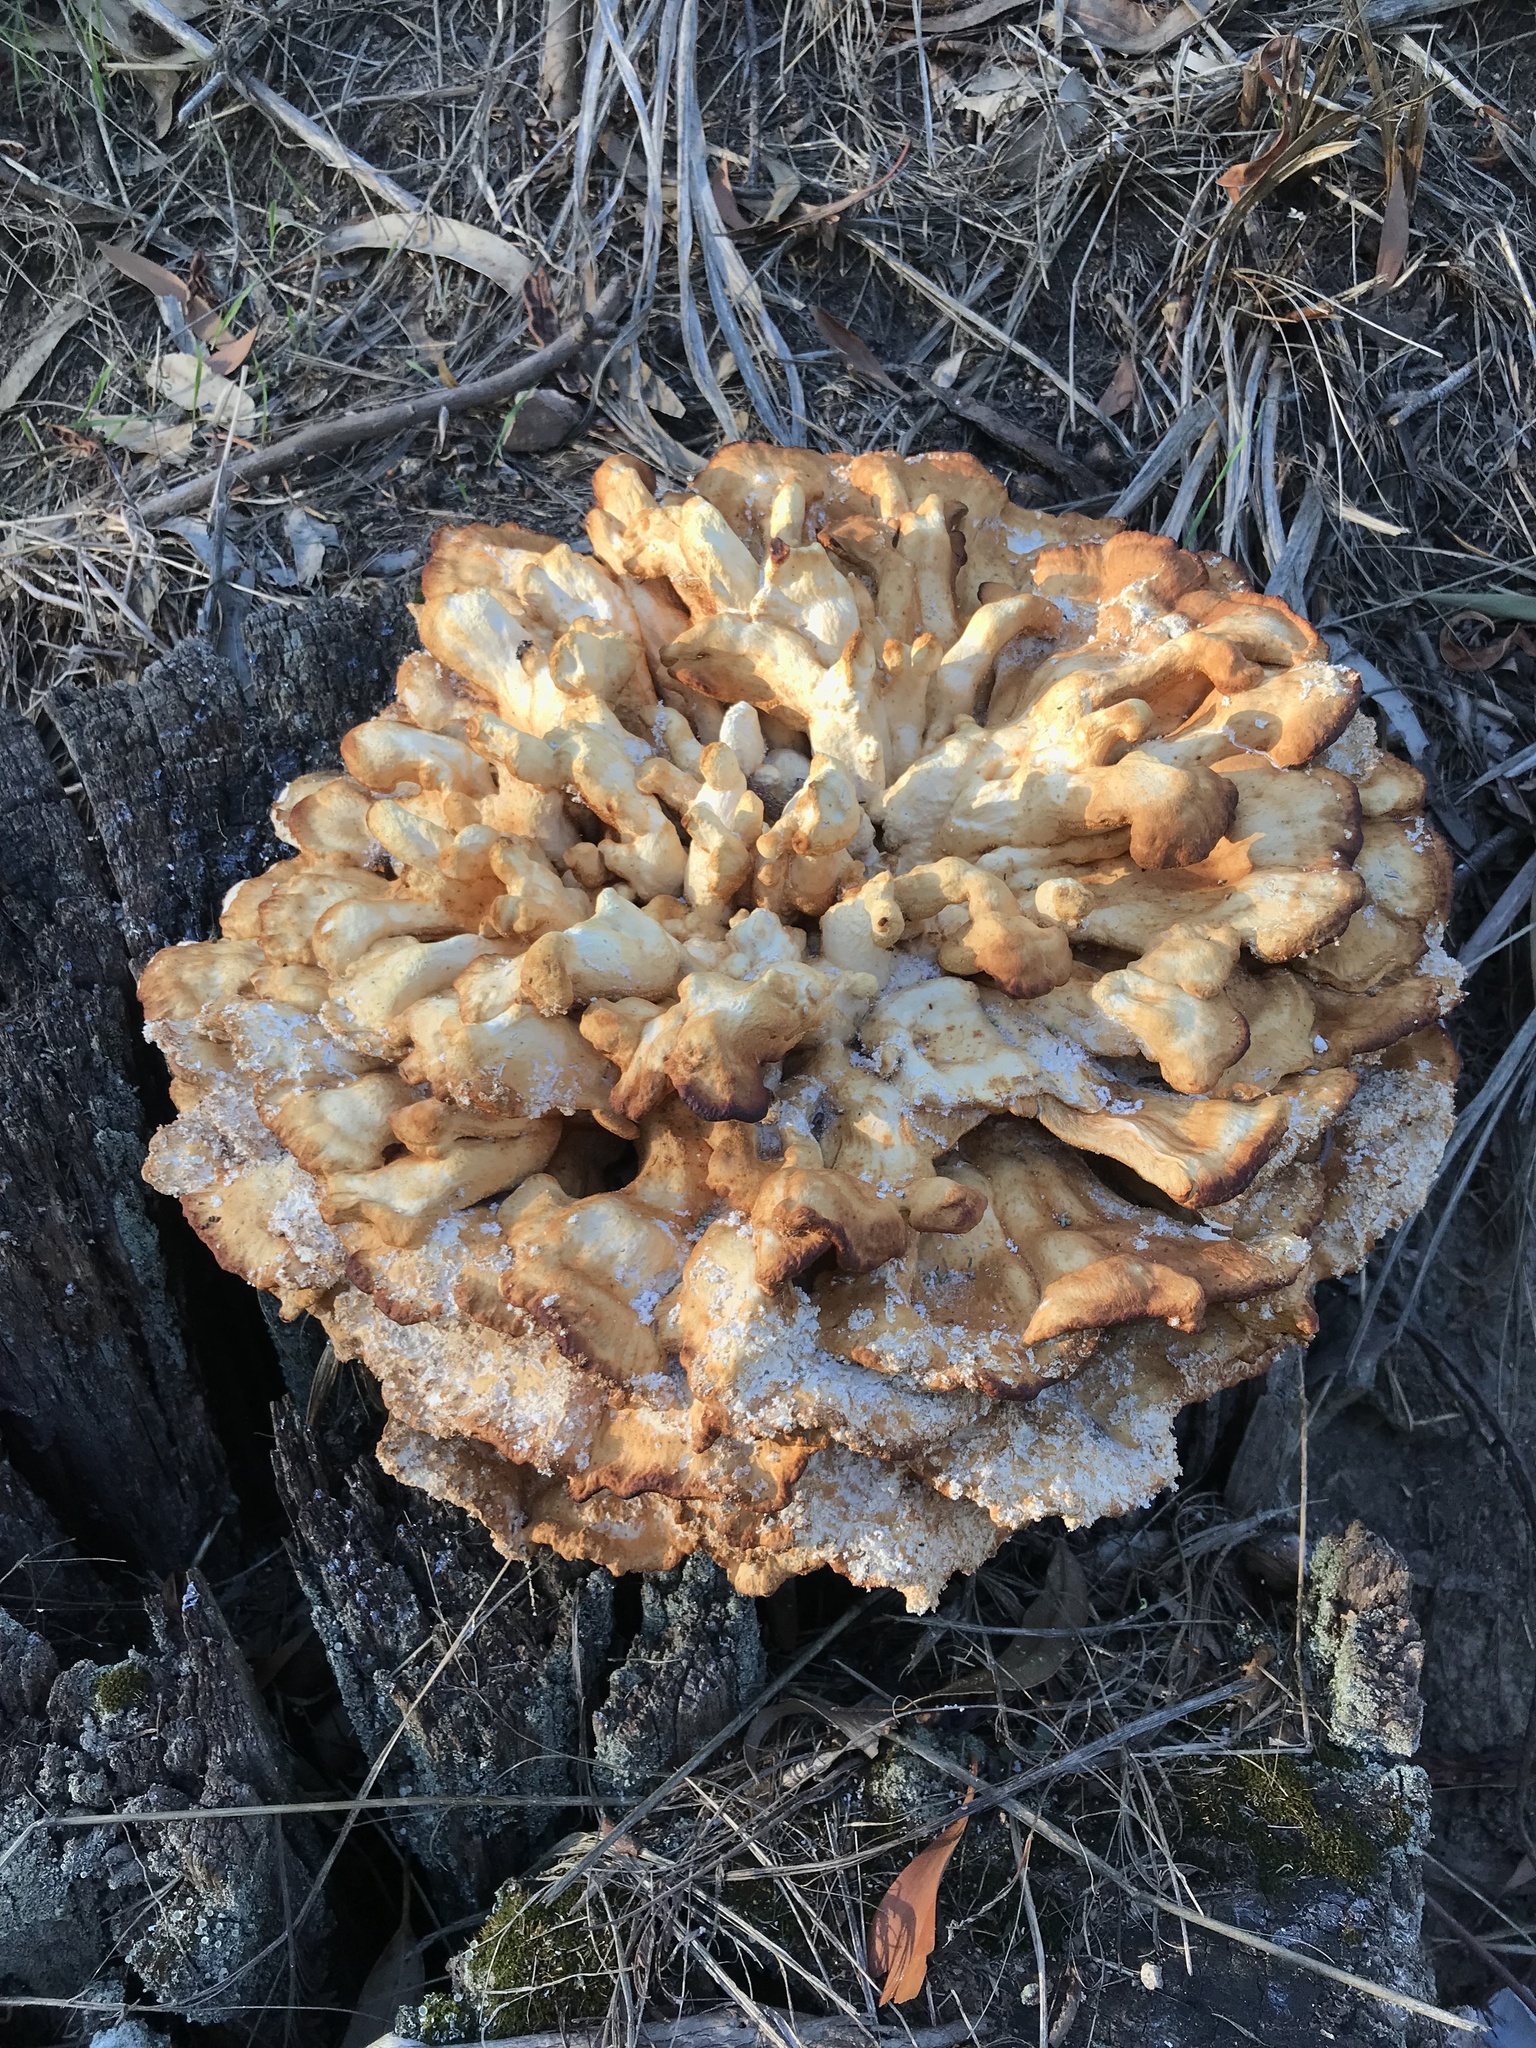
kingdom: Fungi
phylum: Basidiomycota
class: Agaricomycetes
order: Polyporales
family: Laetiporaceae
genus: Laetiporus
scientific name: Laetiporus sulphureus
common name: Chicken of the woods
